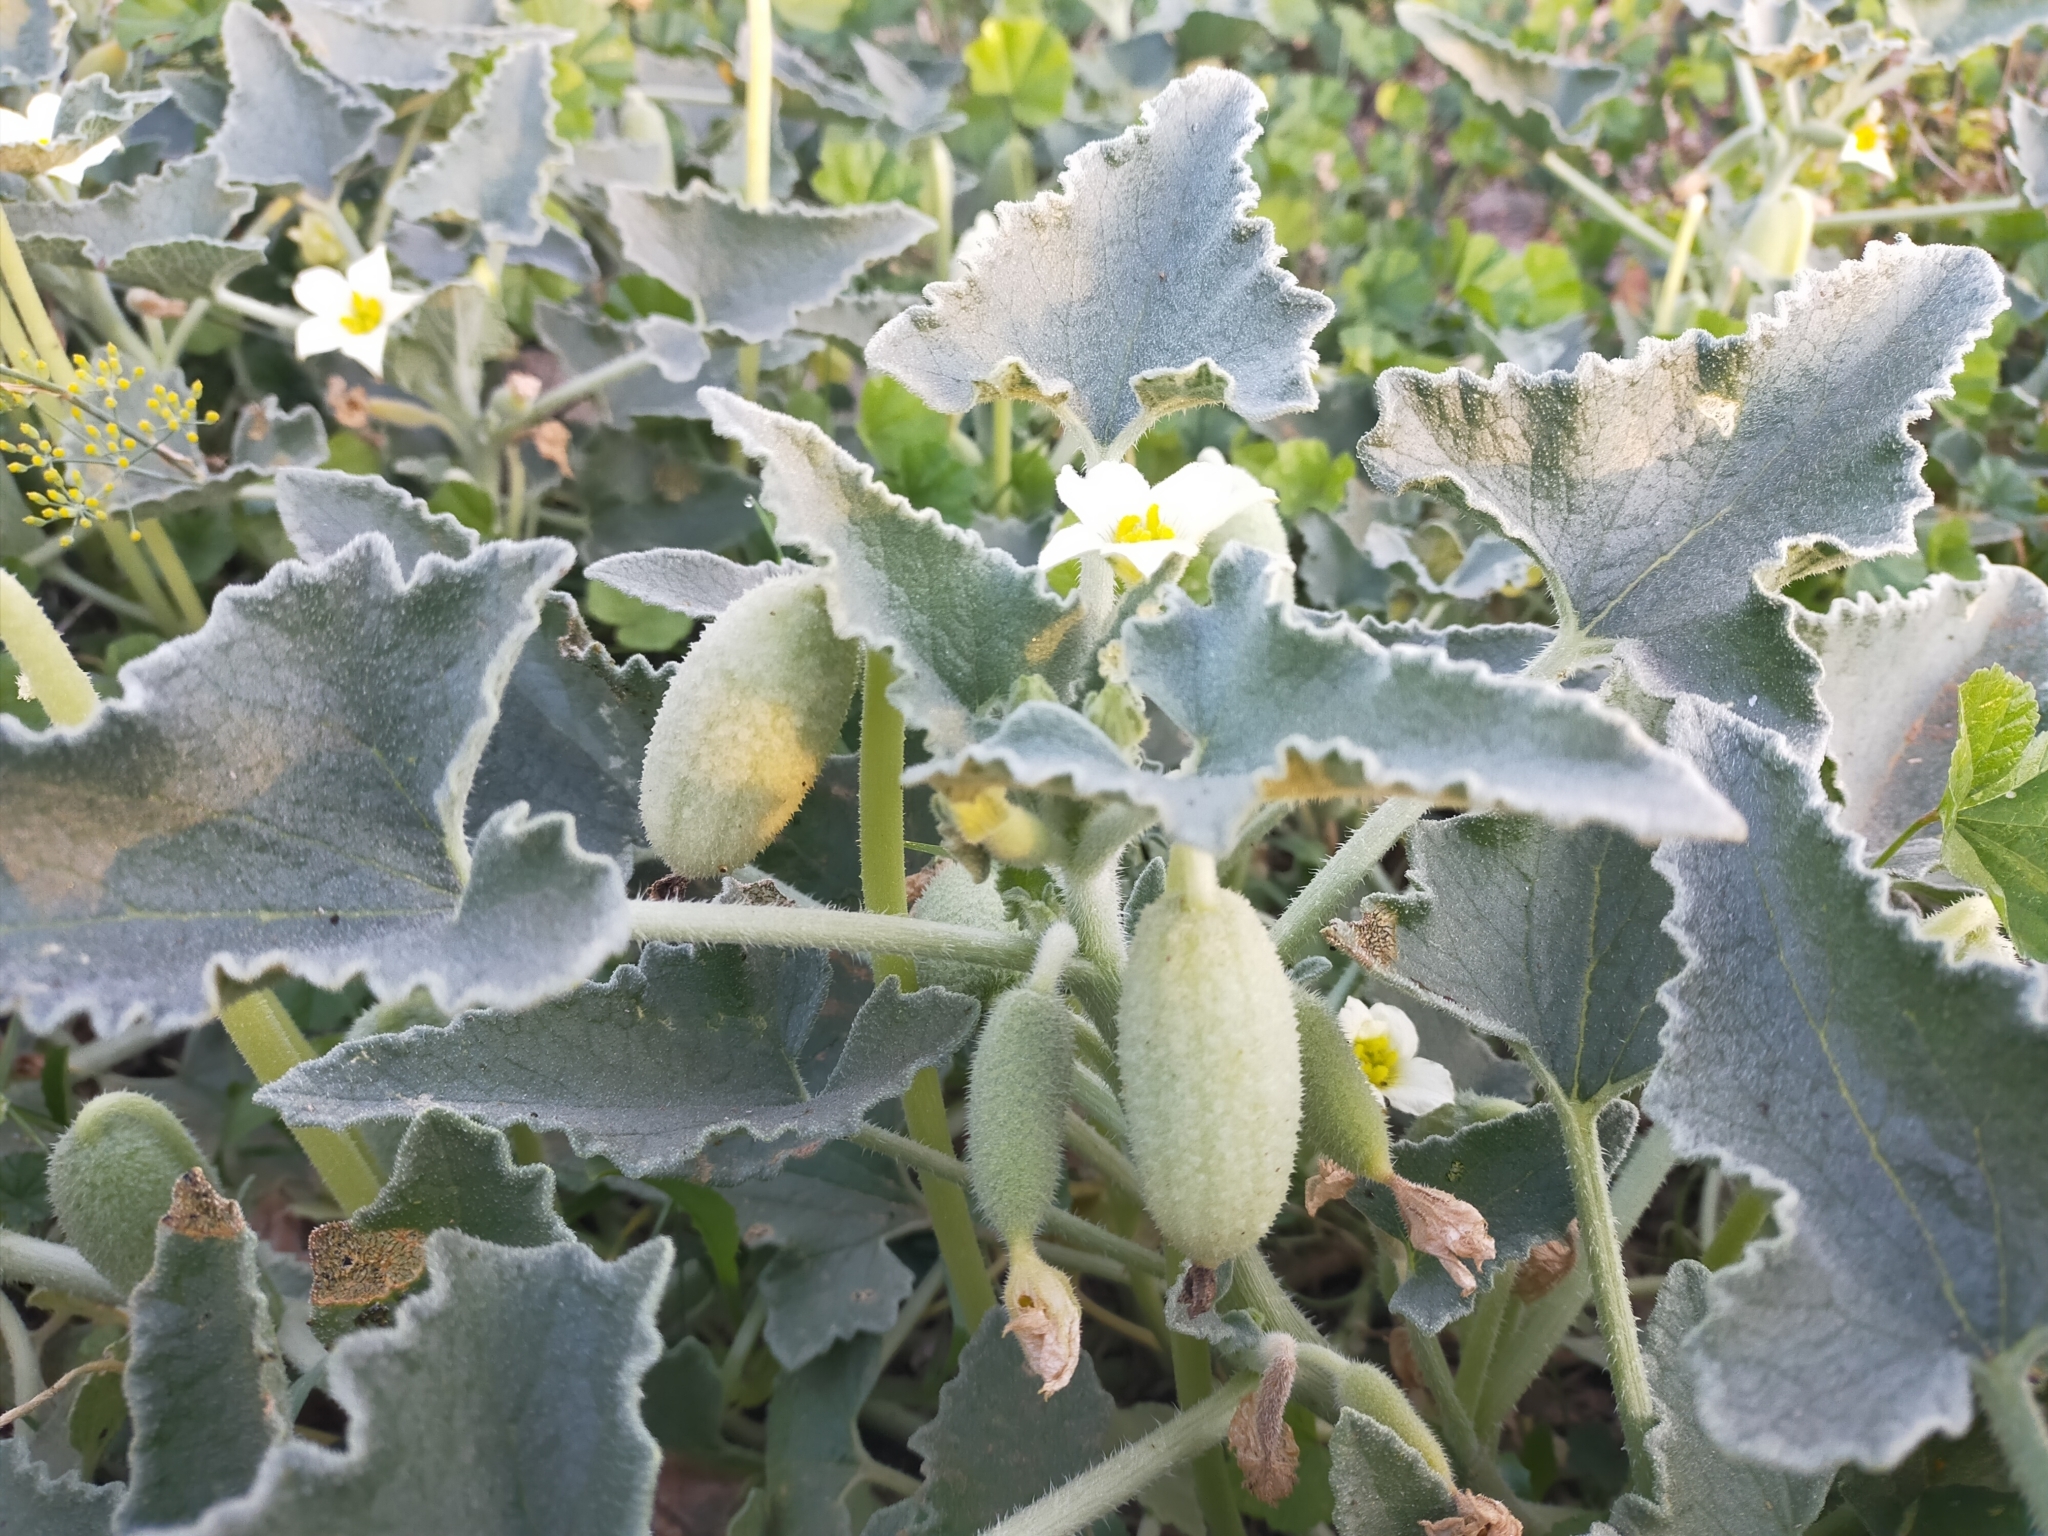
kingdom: Plantae
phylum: Tracheophyta
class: Magnoliopsida
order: Cucurbitales
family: Cucurbitaceae
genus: Ecballium
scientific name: Ecballium elaterium
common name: Squirting cucumber
